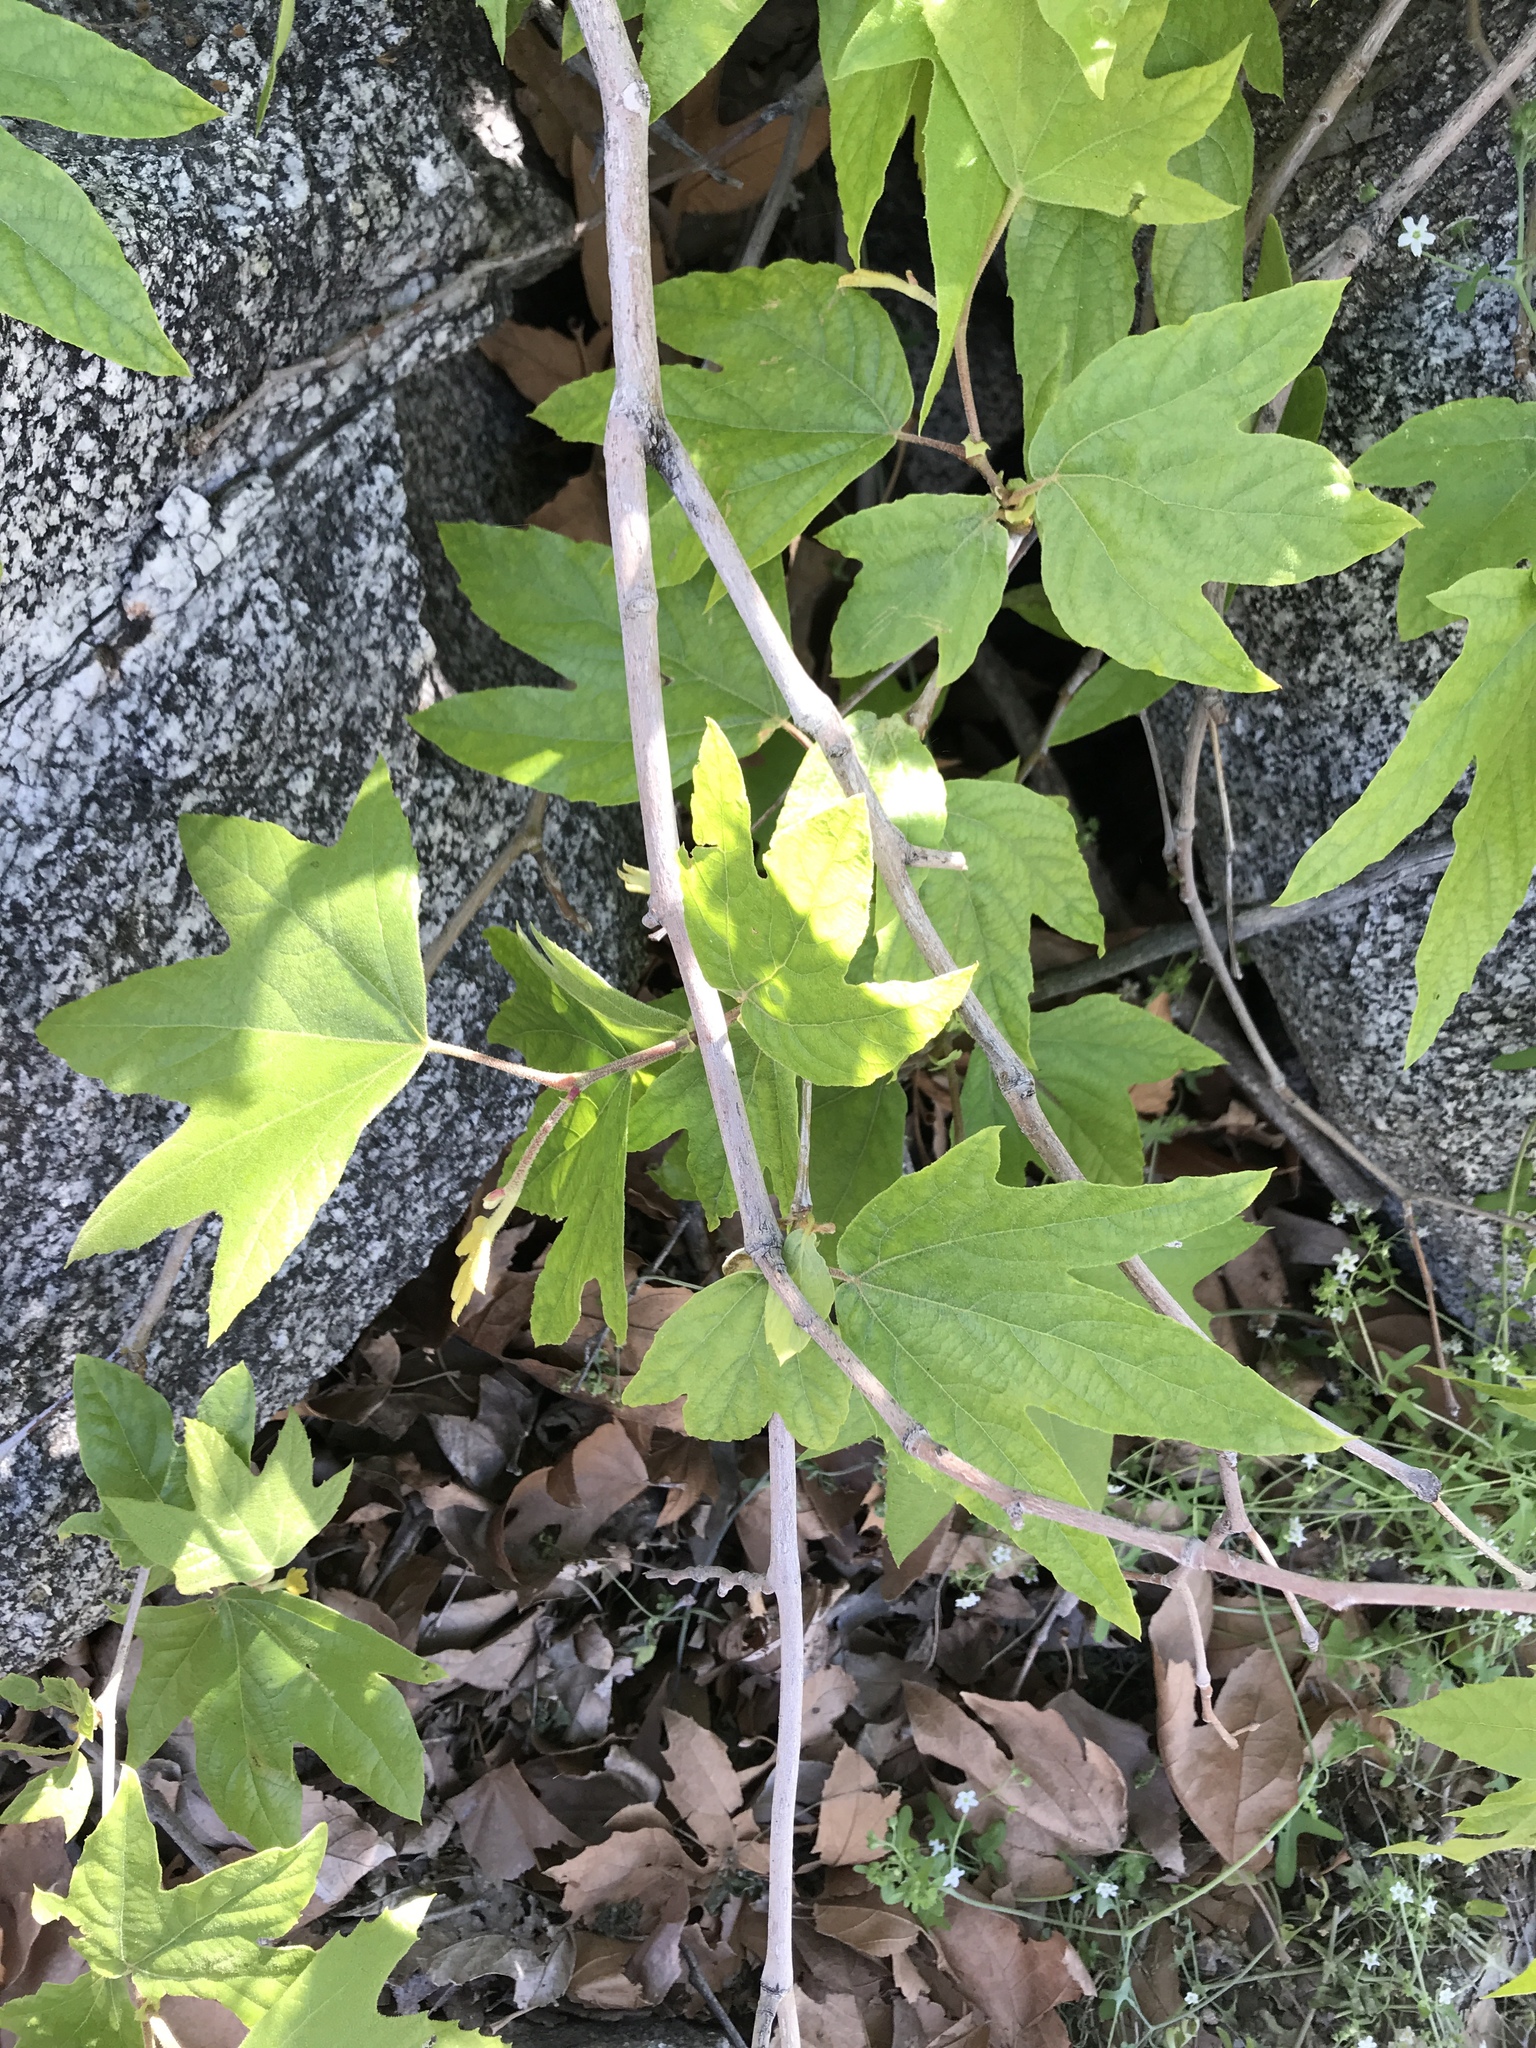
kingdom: Plantae
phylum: Tracheophyta
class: Magnoliopsida
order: Proteales
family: Platanaceae
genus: Platanus
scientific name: Platanus racemosa
